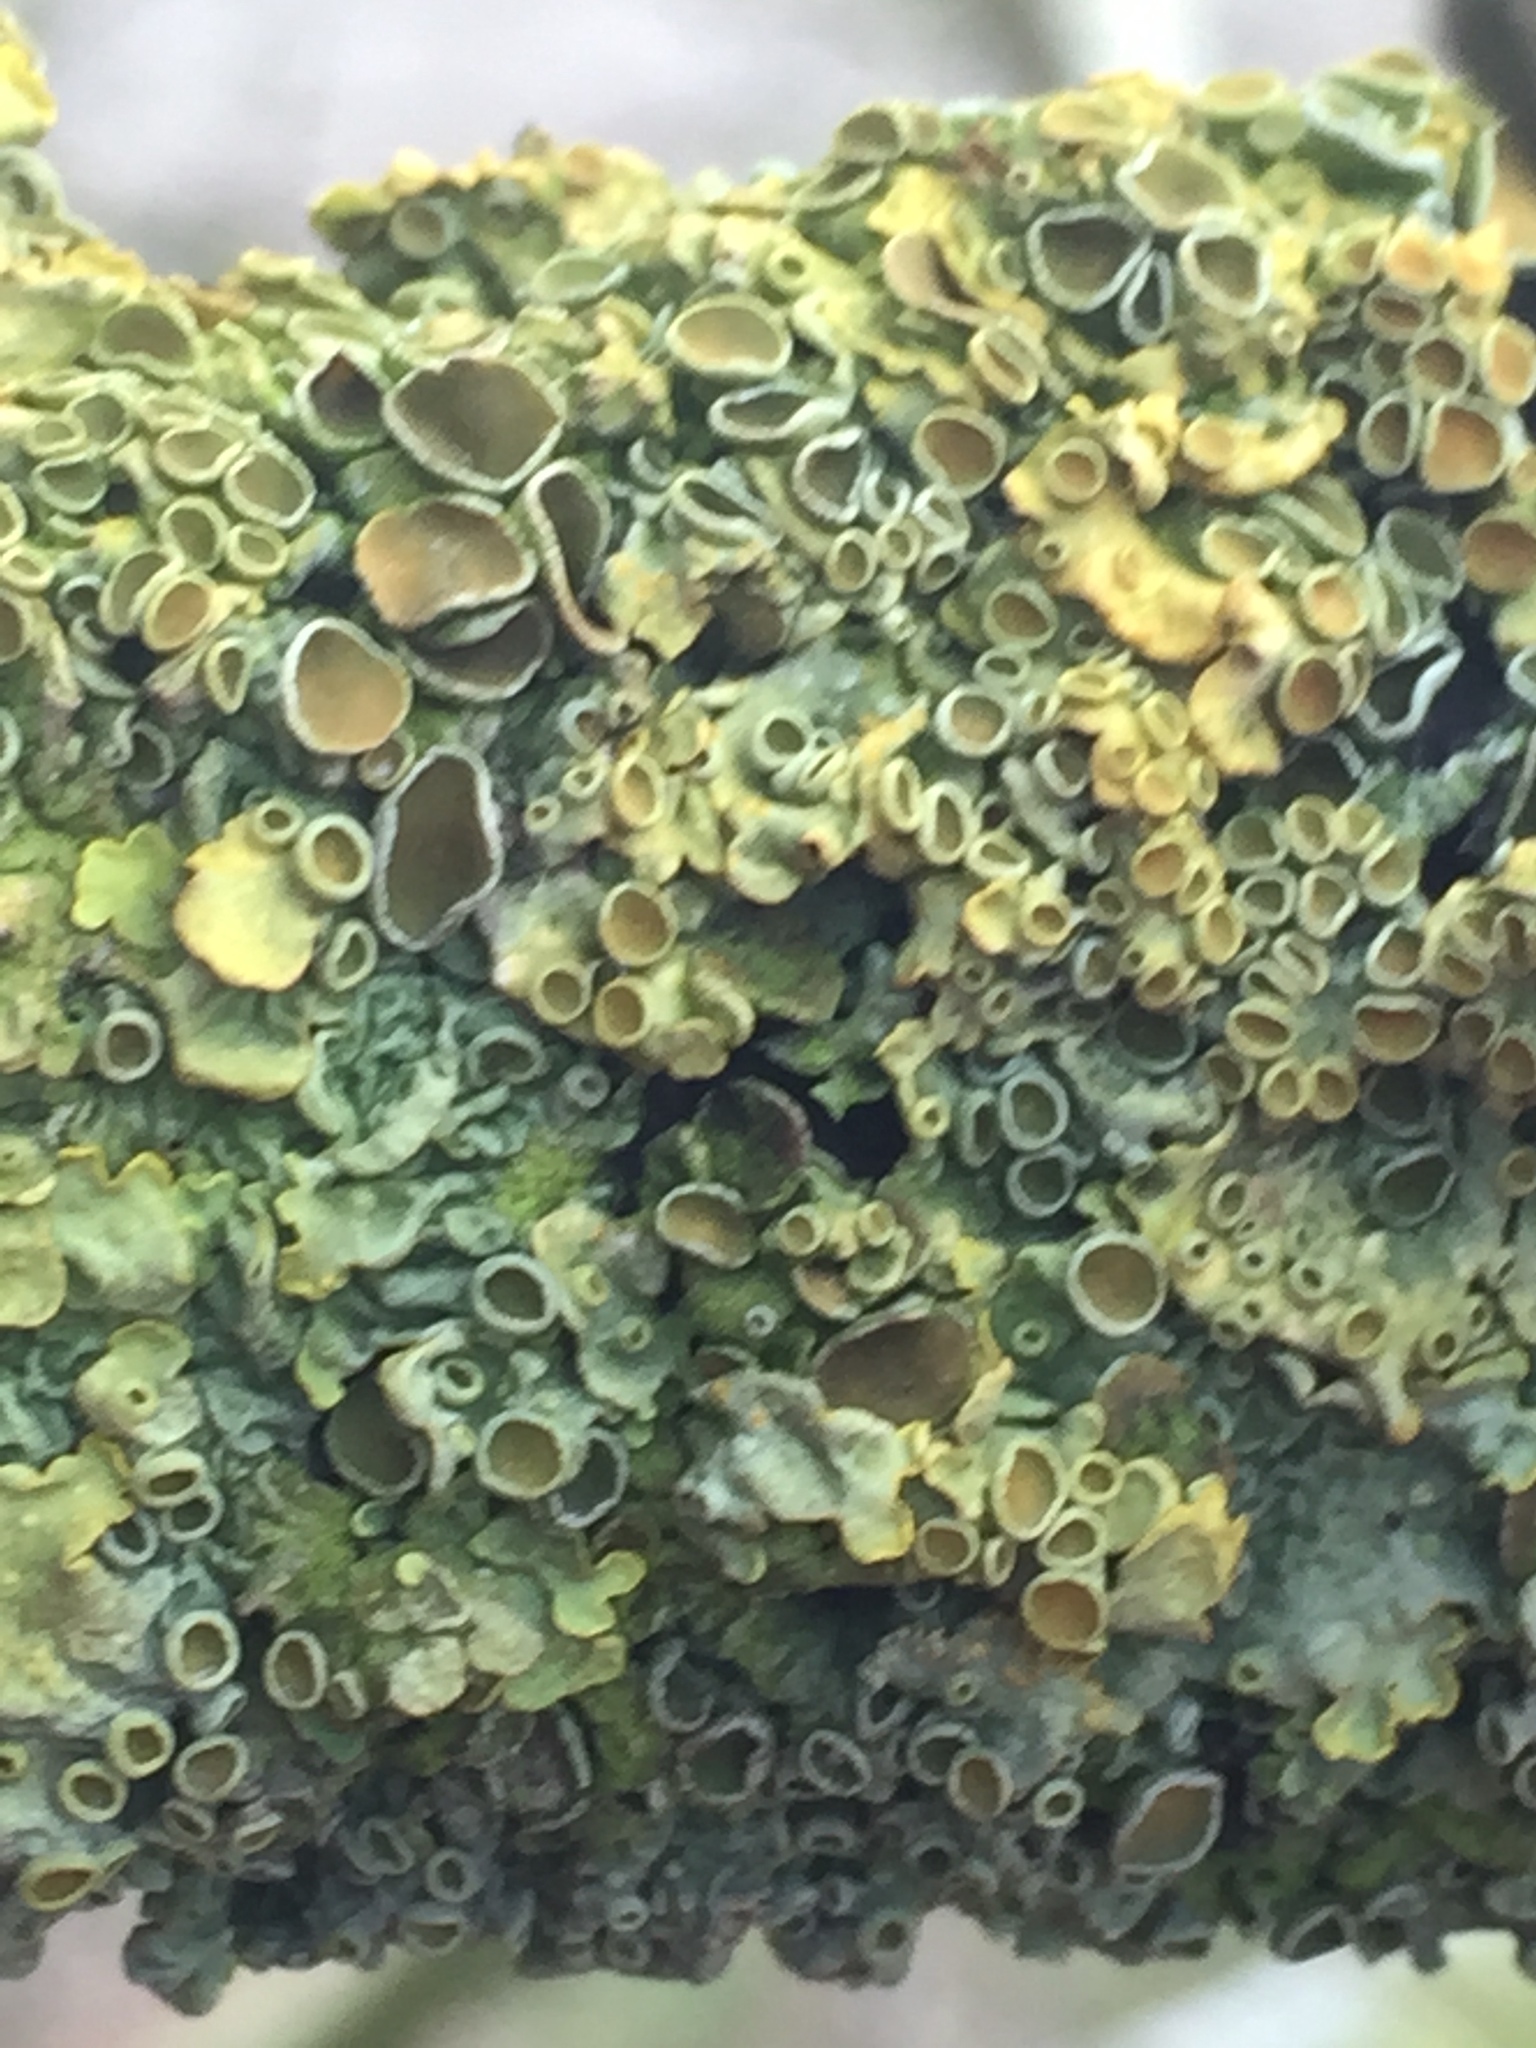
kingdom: Fungi
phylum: Ascomycota
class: Lecanoromycetes
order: Teloschistales
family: Teloschistaceae
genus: Xanthoria
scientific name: Xanthoria parietina
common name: Common orange lichen
